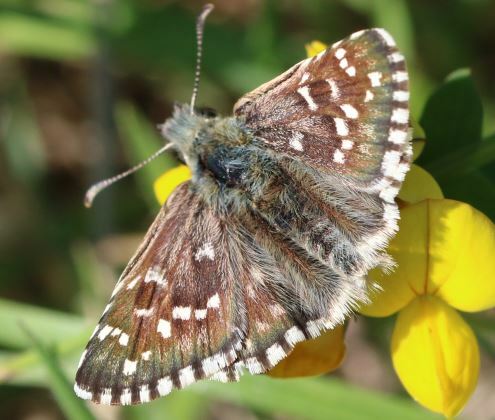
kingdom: Animalia
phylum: Arthropoda
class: Insecta
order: Lepidoptera
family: Hesperiidae
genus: Pyrgus
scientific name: Pyrgus armoricanus
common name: Oberthür's grizzled skipper
